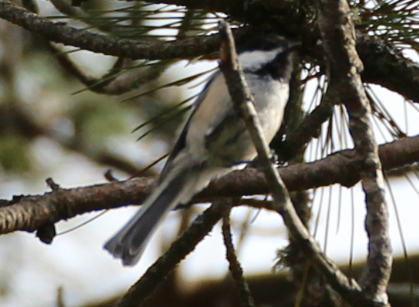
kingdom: Animalia
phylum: Chordata
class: Aves
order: Passeriformes
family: Paridae
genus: Poecile
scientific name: Poecile atricapillus
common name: Black-capped chickadee
